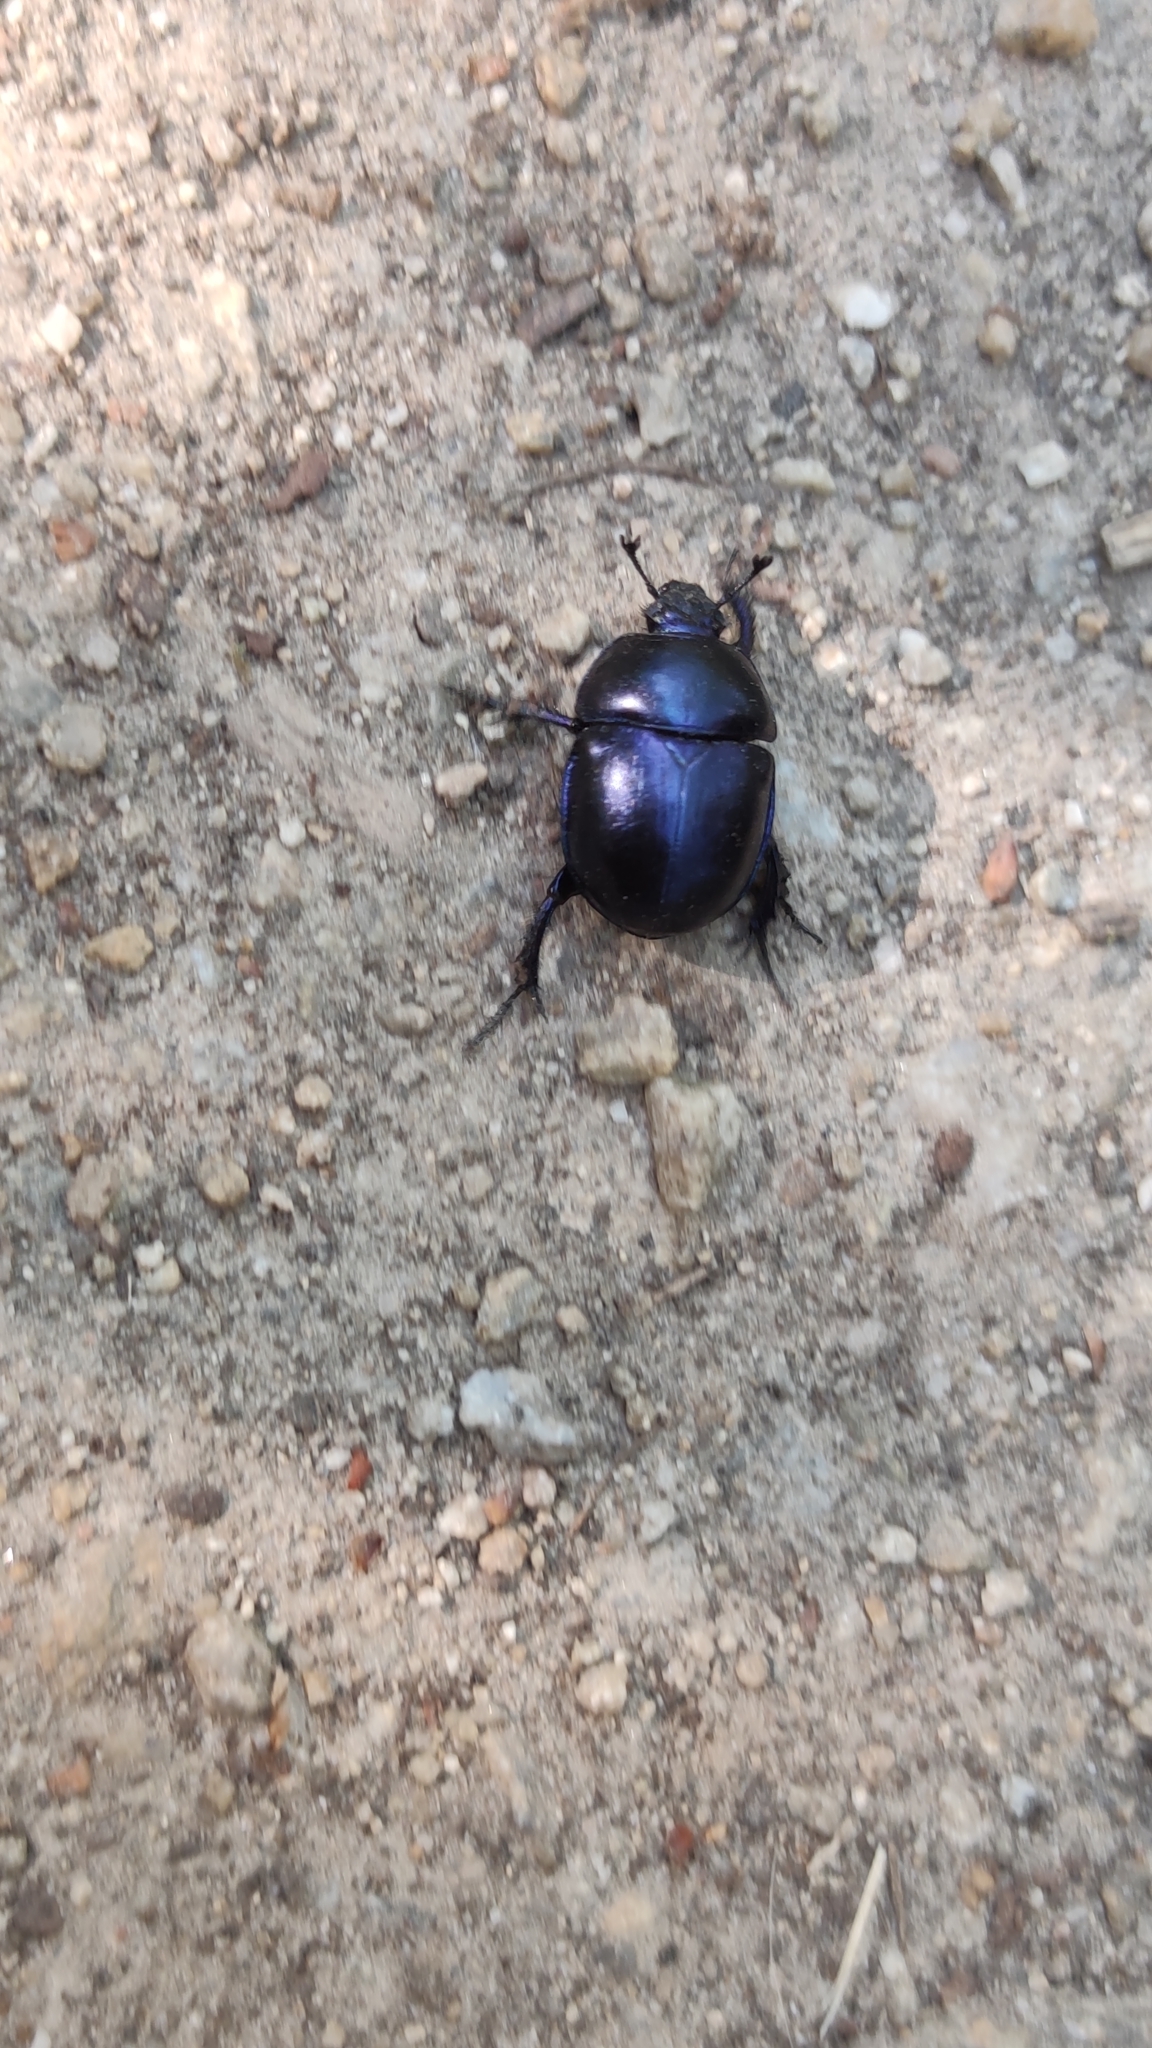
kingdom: Animalia
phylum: Arthropoda
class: Insecta
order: Coleoptera
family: Geotrupidae
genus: Trypocopris
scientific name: Trypocopris vernalis
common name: Spring dumbledor
